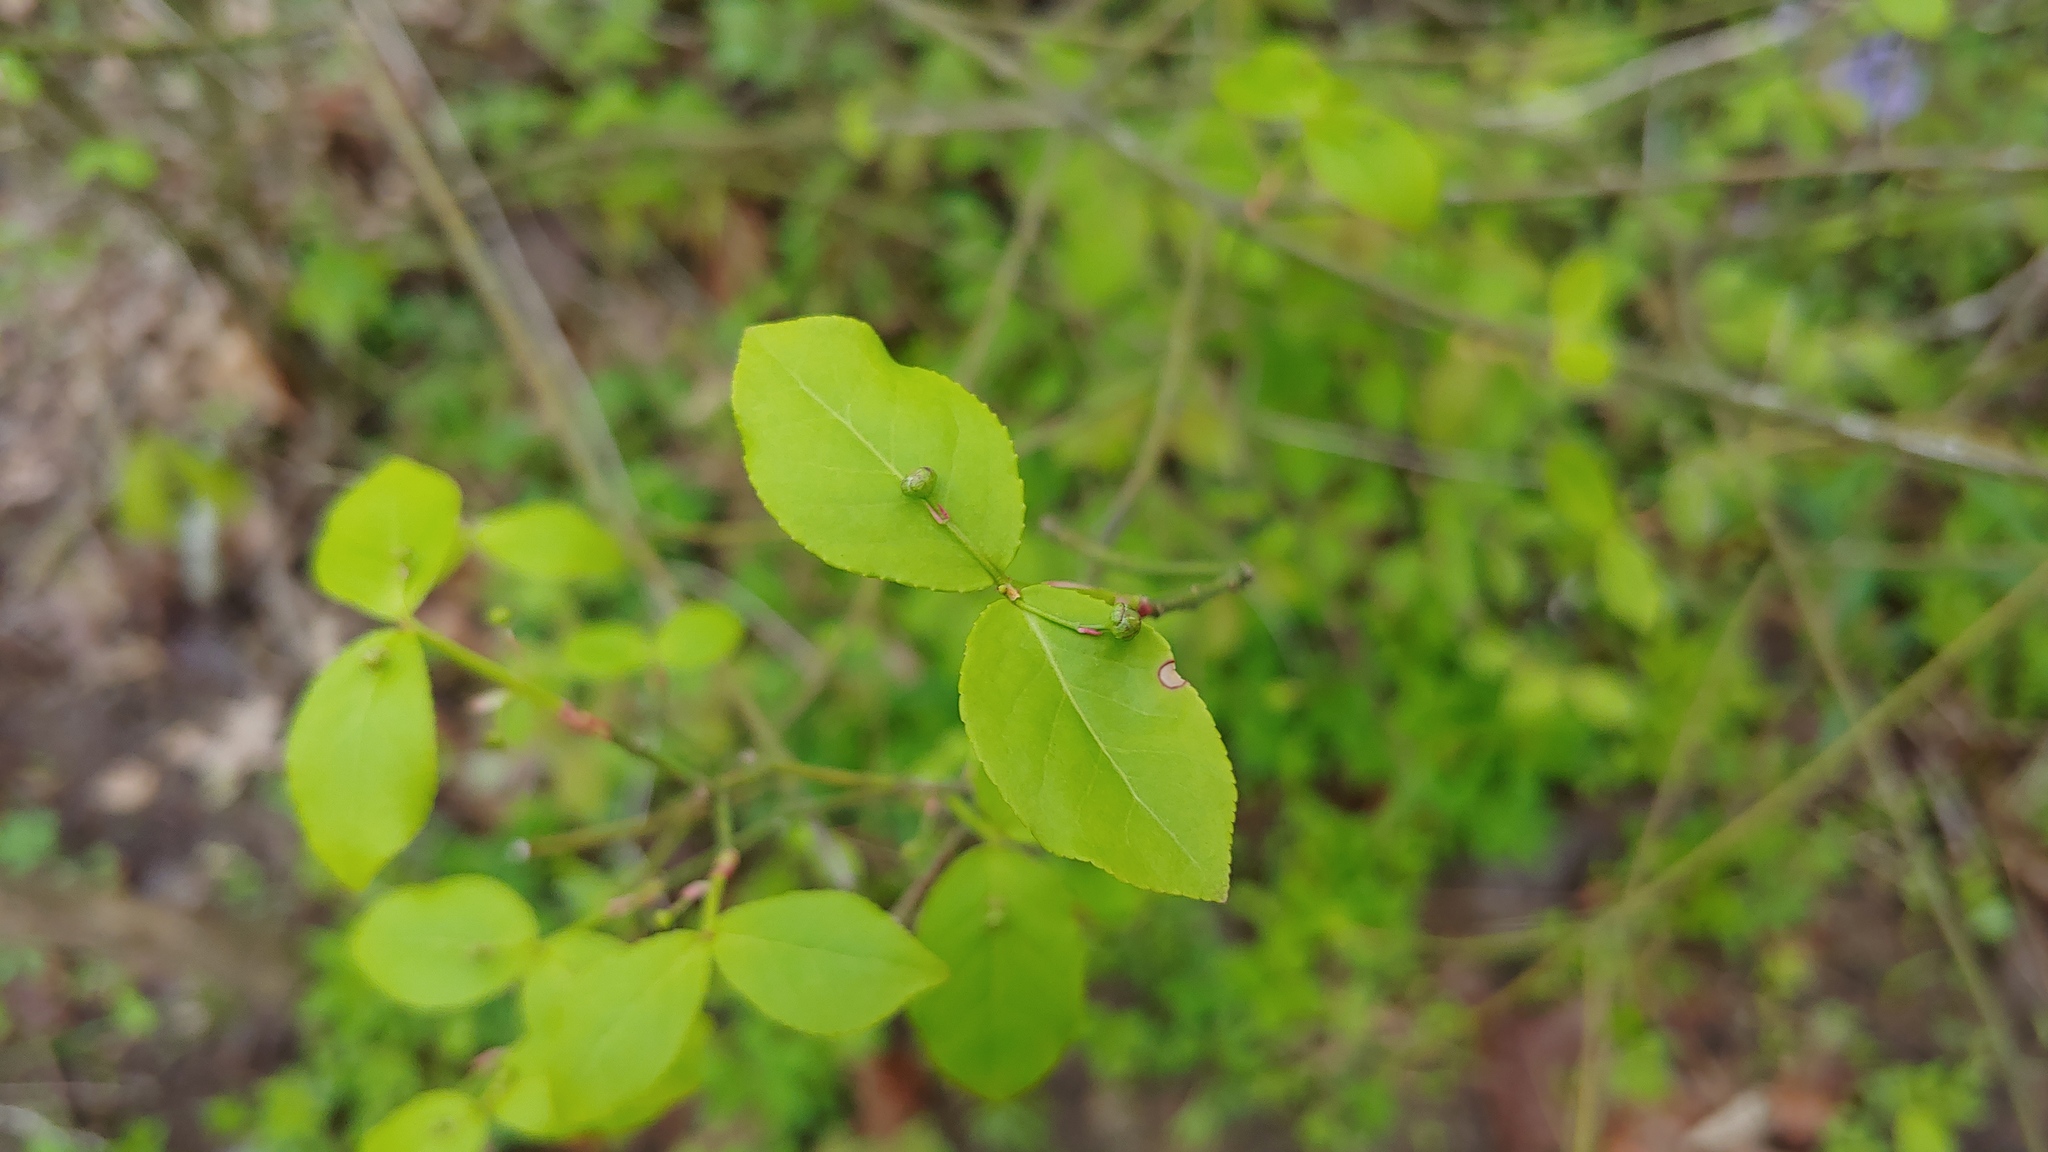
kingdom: Plantae
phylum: Tracheophyta
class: Magnoliopsida
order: Celastrales
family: Celastraceae
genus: Euonymus
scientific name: Euonymus americanus
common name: Bursting-heart
